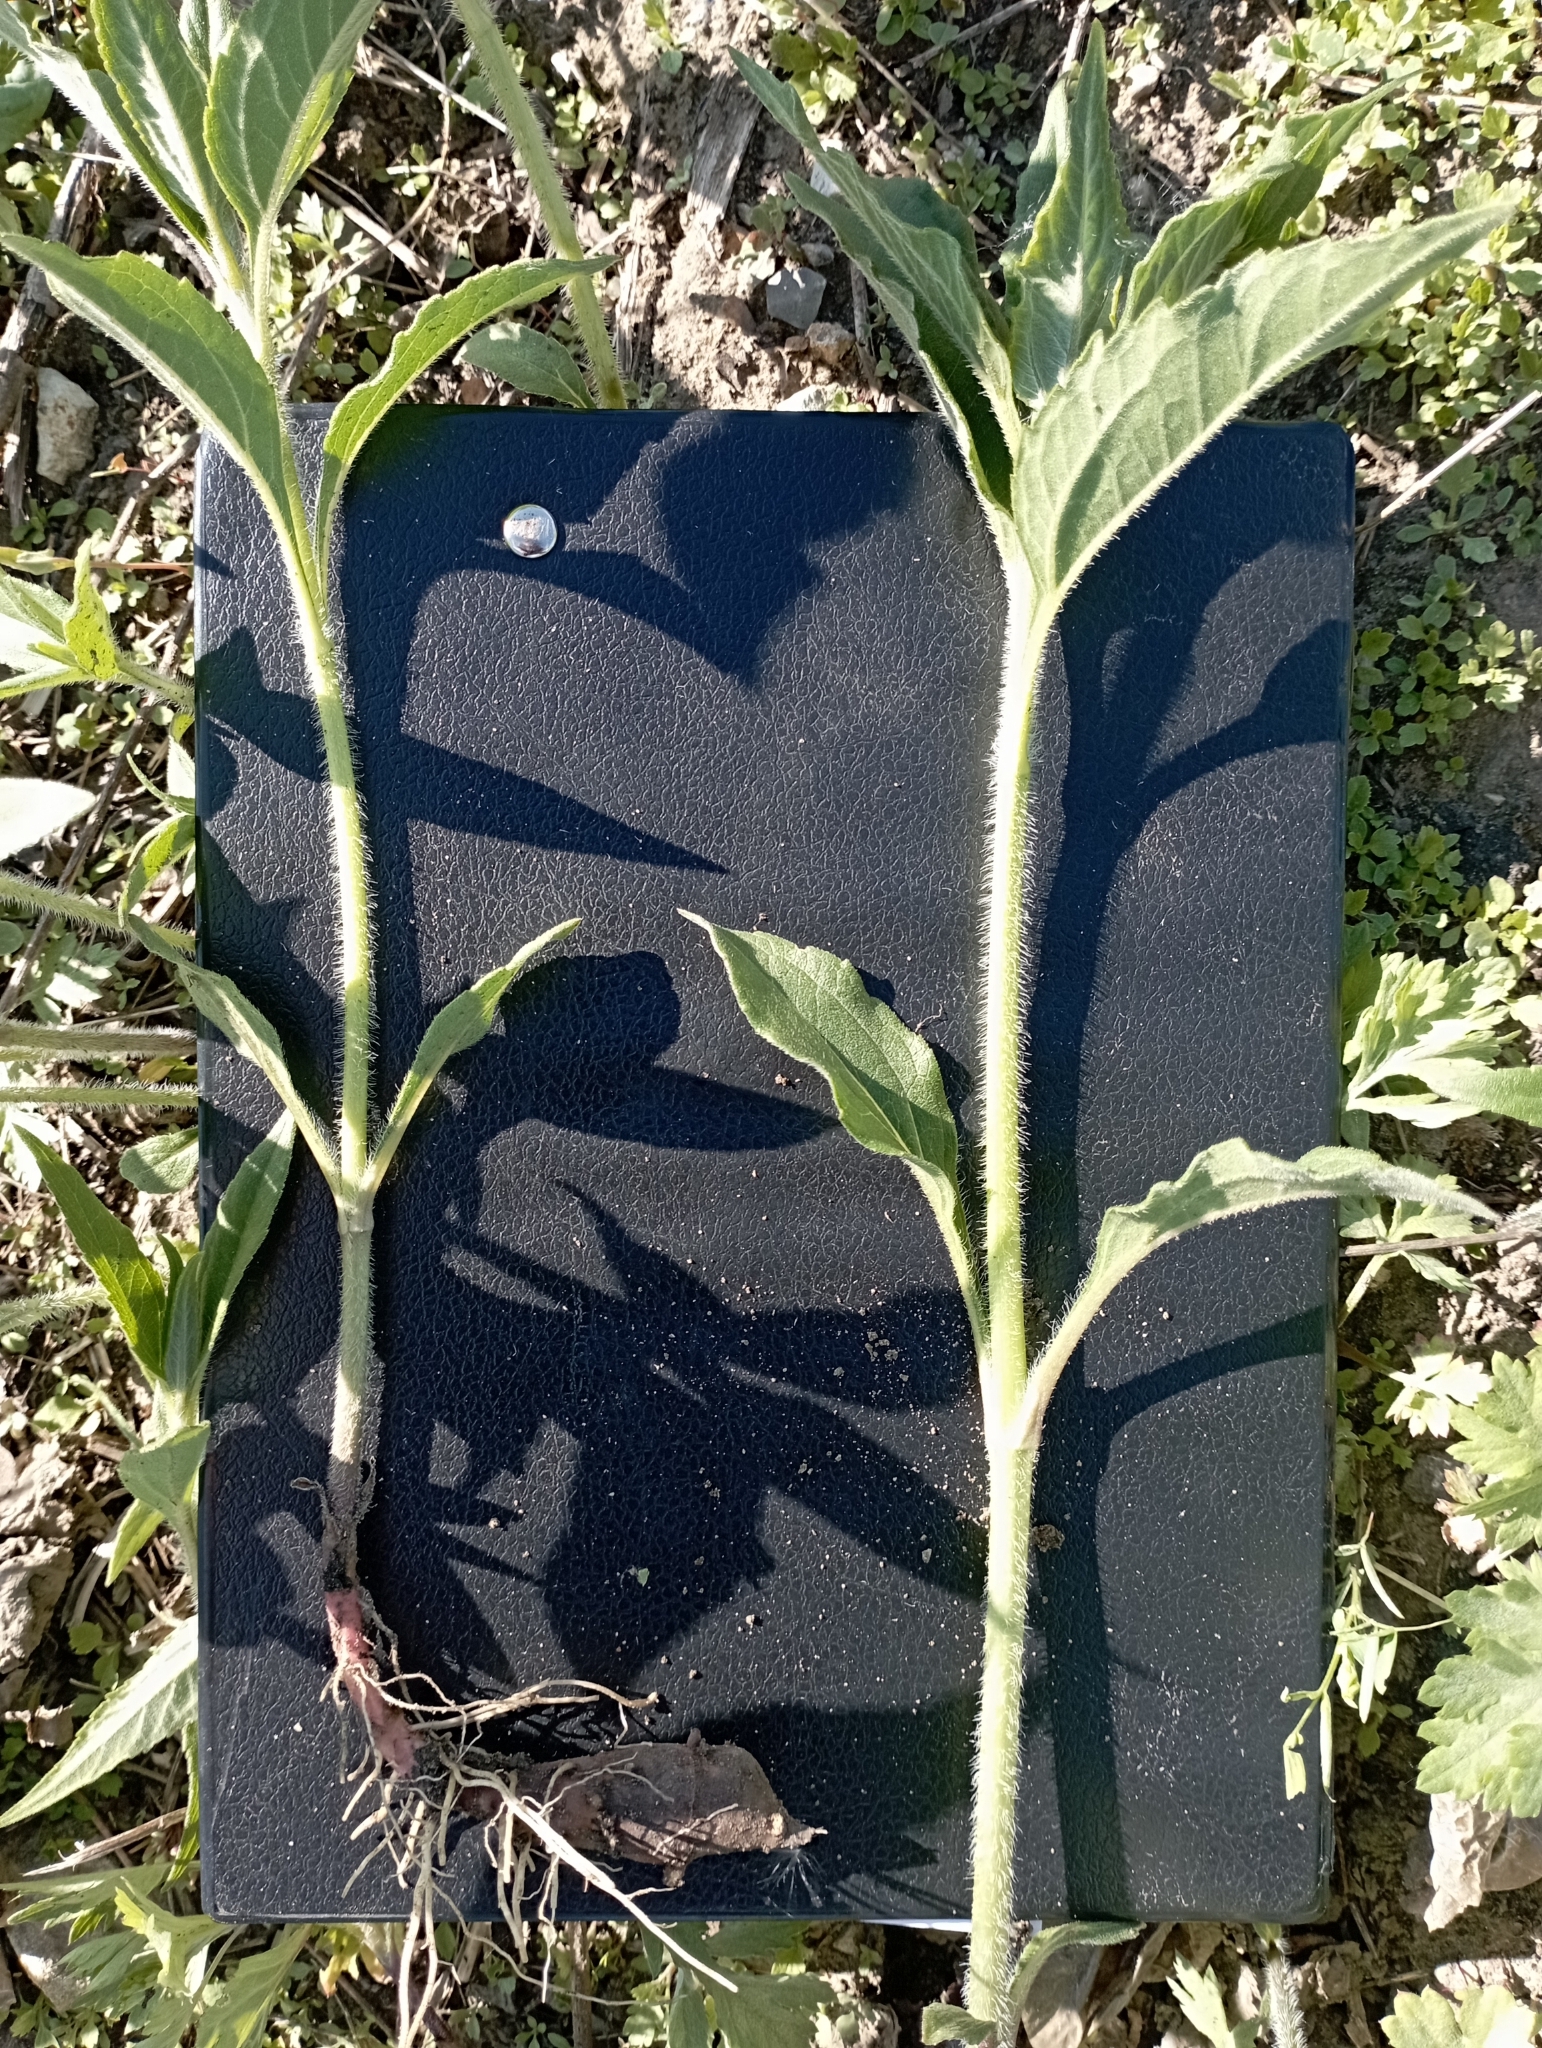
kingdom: Plantae
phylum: Tracheophyta
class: Magnoliopsida
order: Asterales
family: Asteraceae
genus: Helianthus
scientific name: Helianthus tuberosus
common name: Jerusalem artichoke
